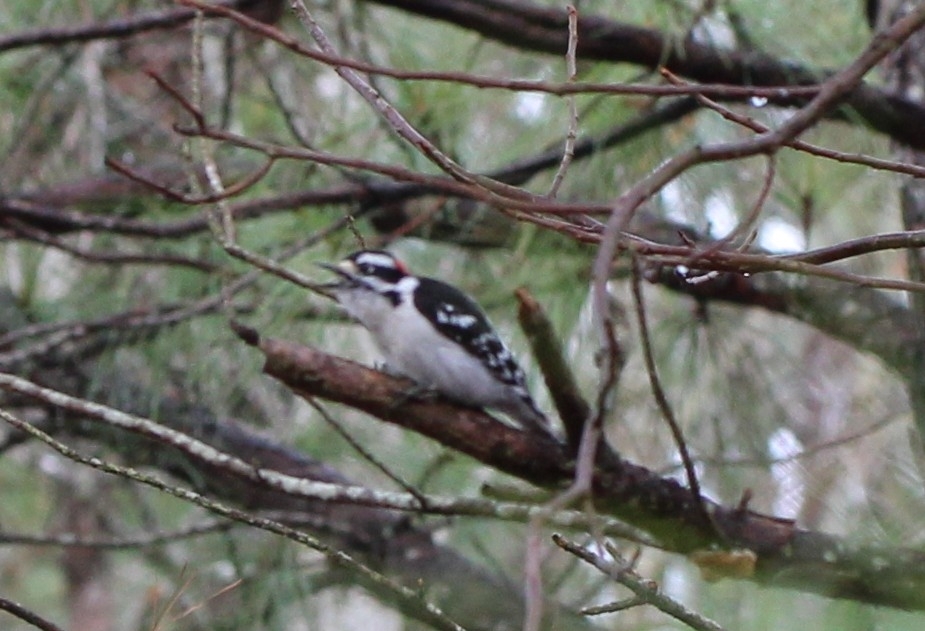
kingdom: Animalia
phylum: Chordata
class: Aves
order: Piciformes
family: Picidae
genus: Dryobates
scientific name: Dryobates pubescens
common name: Downy woodpecker
